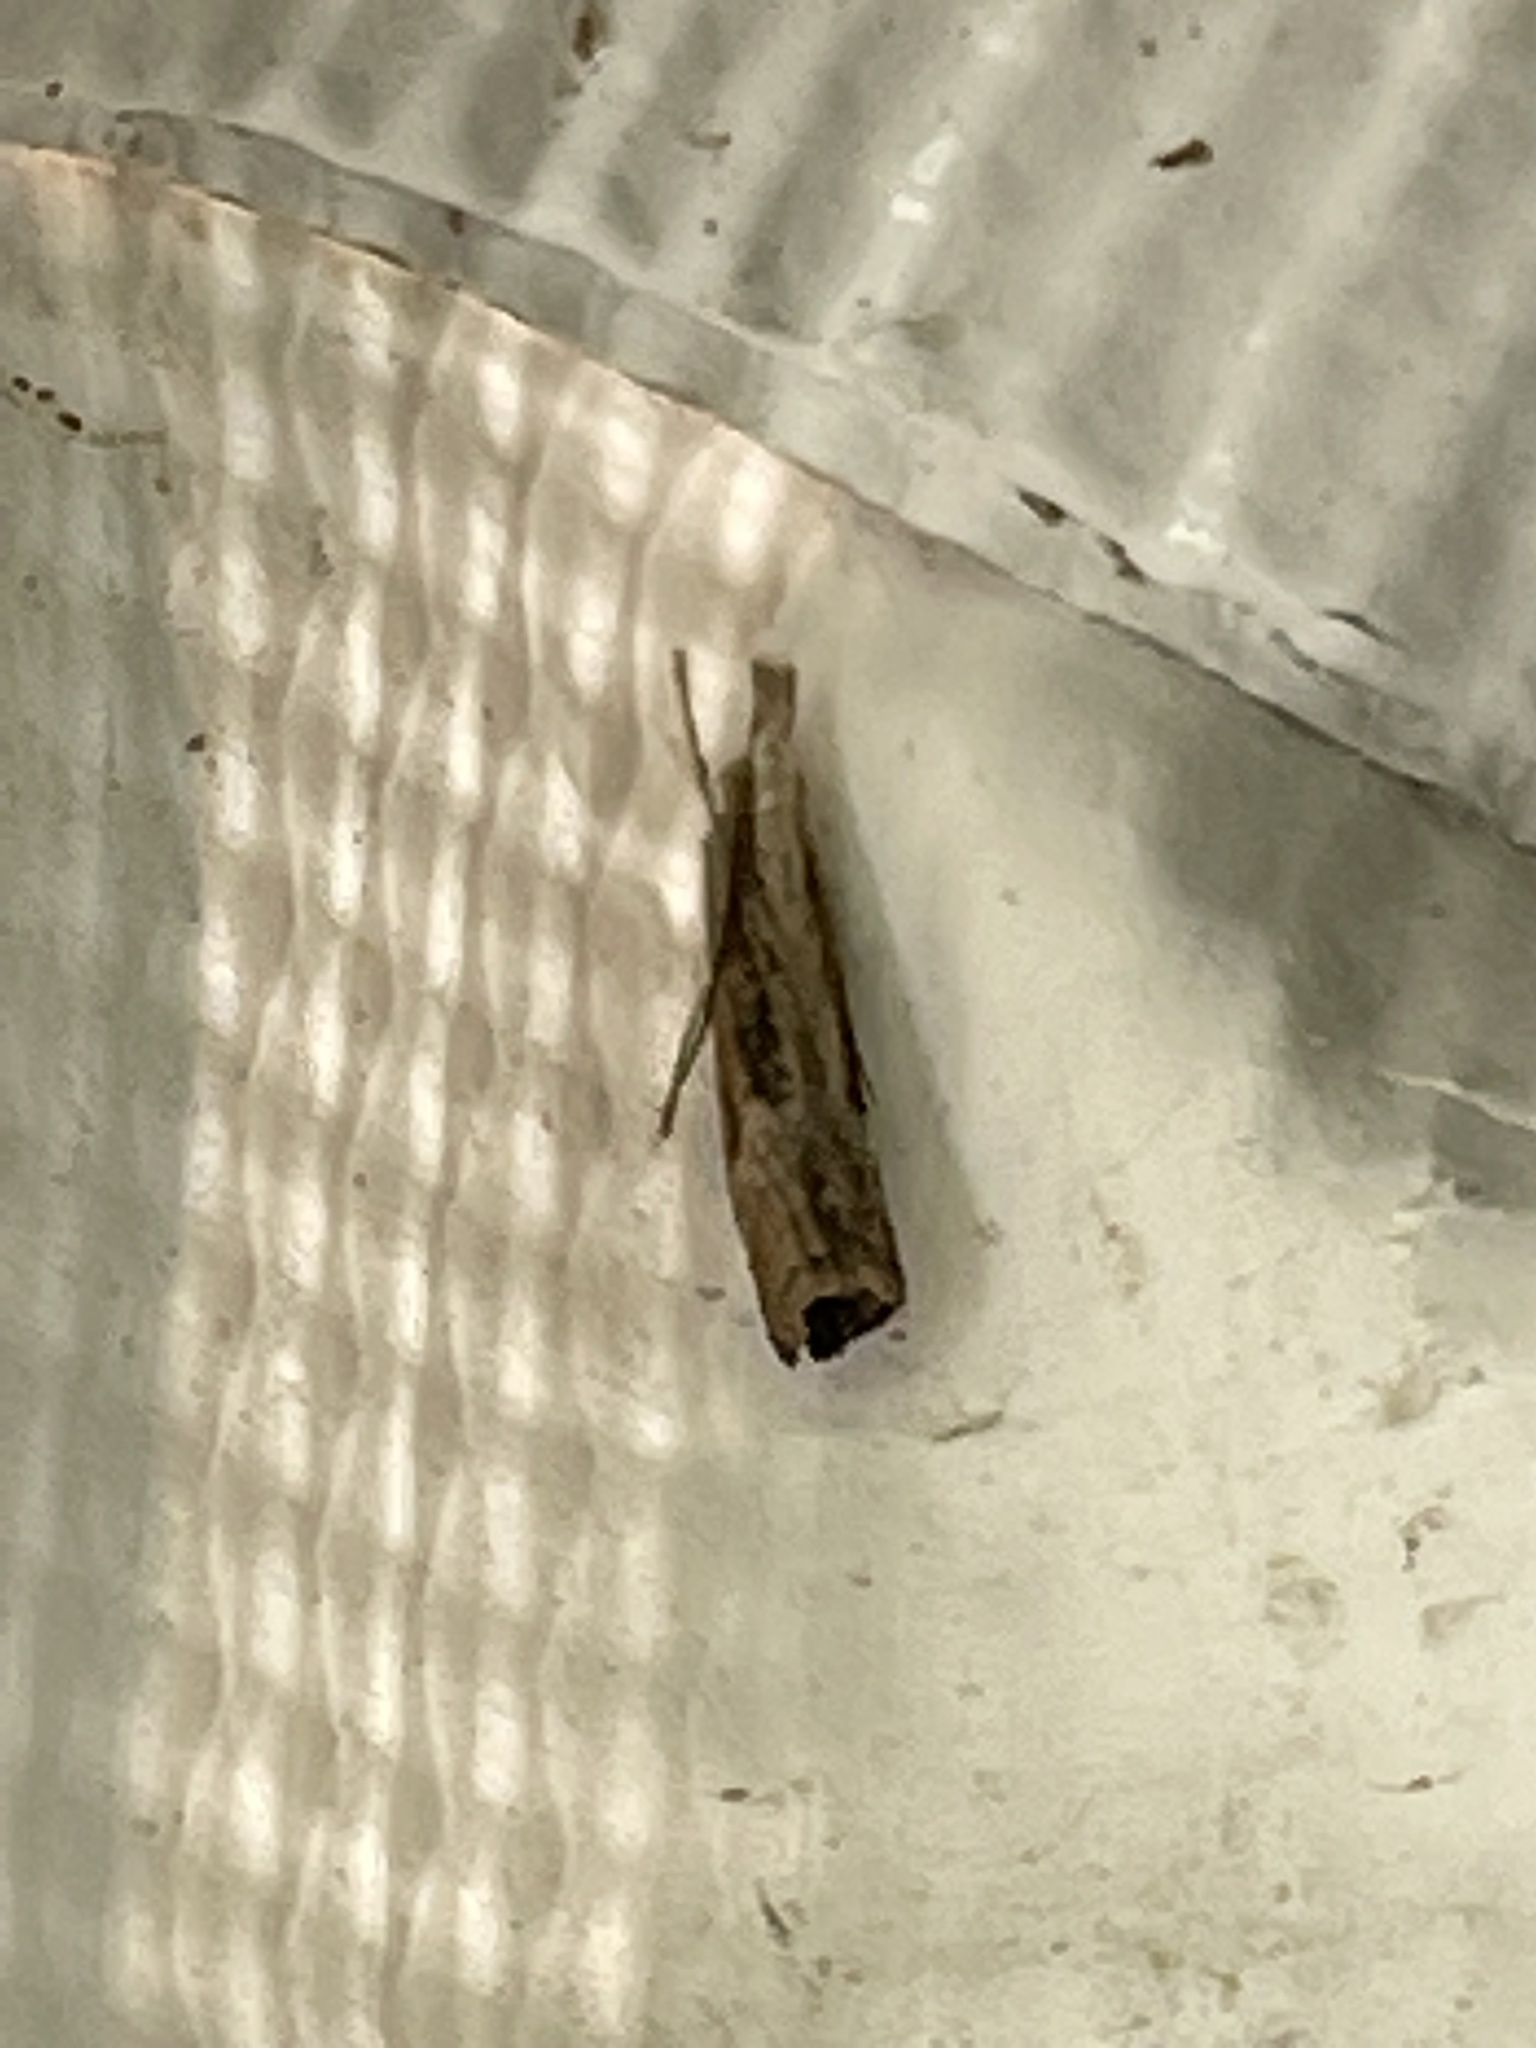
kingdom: Animalia
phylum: Arthropoda
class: Insecta
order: Lepidoptera
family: Crambidae
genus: Parapediasia
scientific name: Parapediasia teterellus
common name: Bluegrass webworm moth
